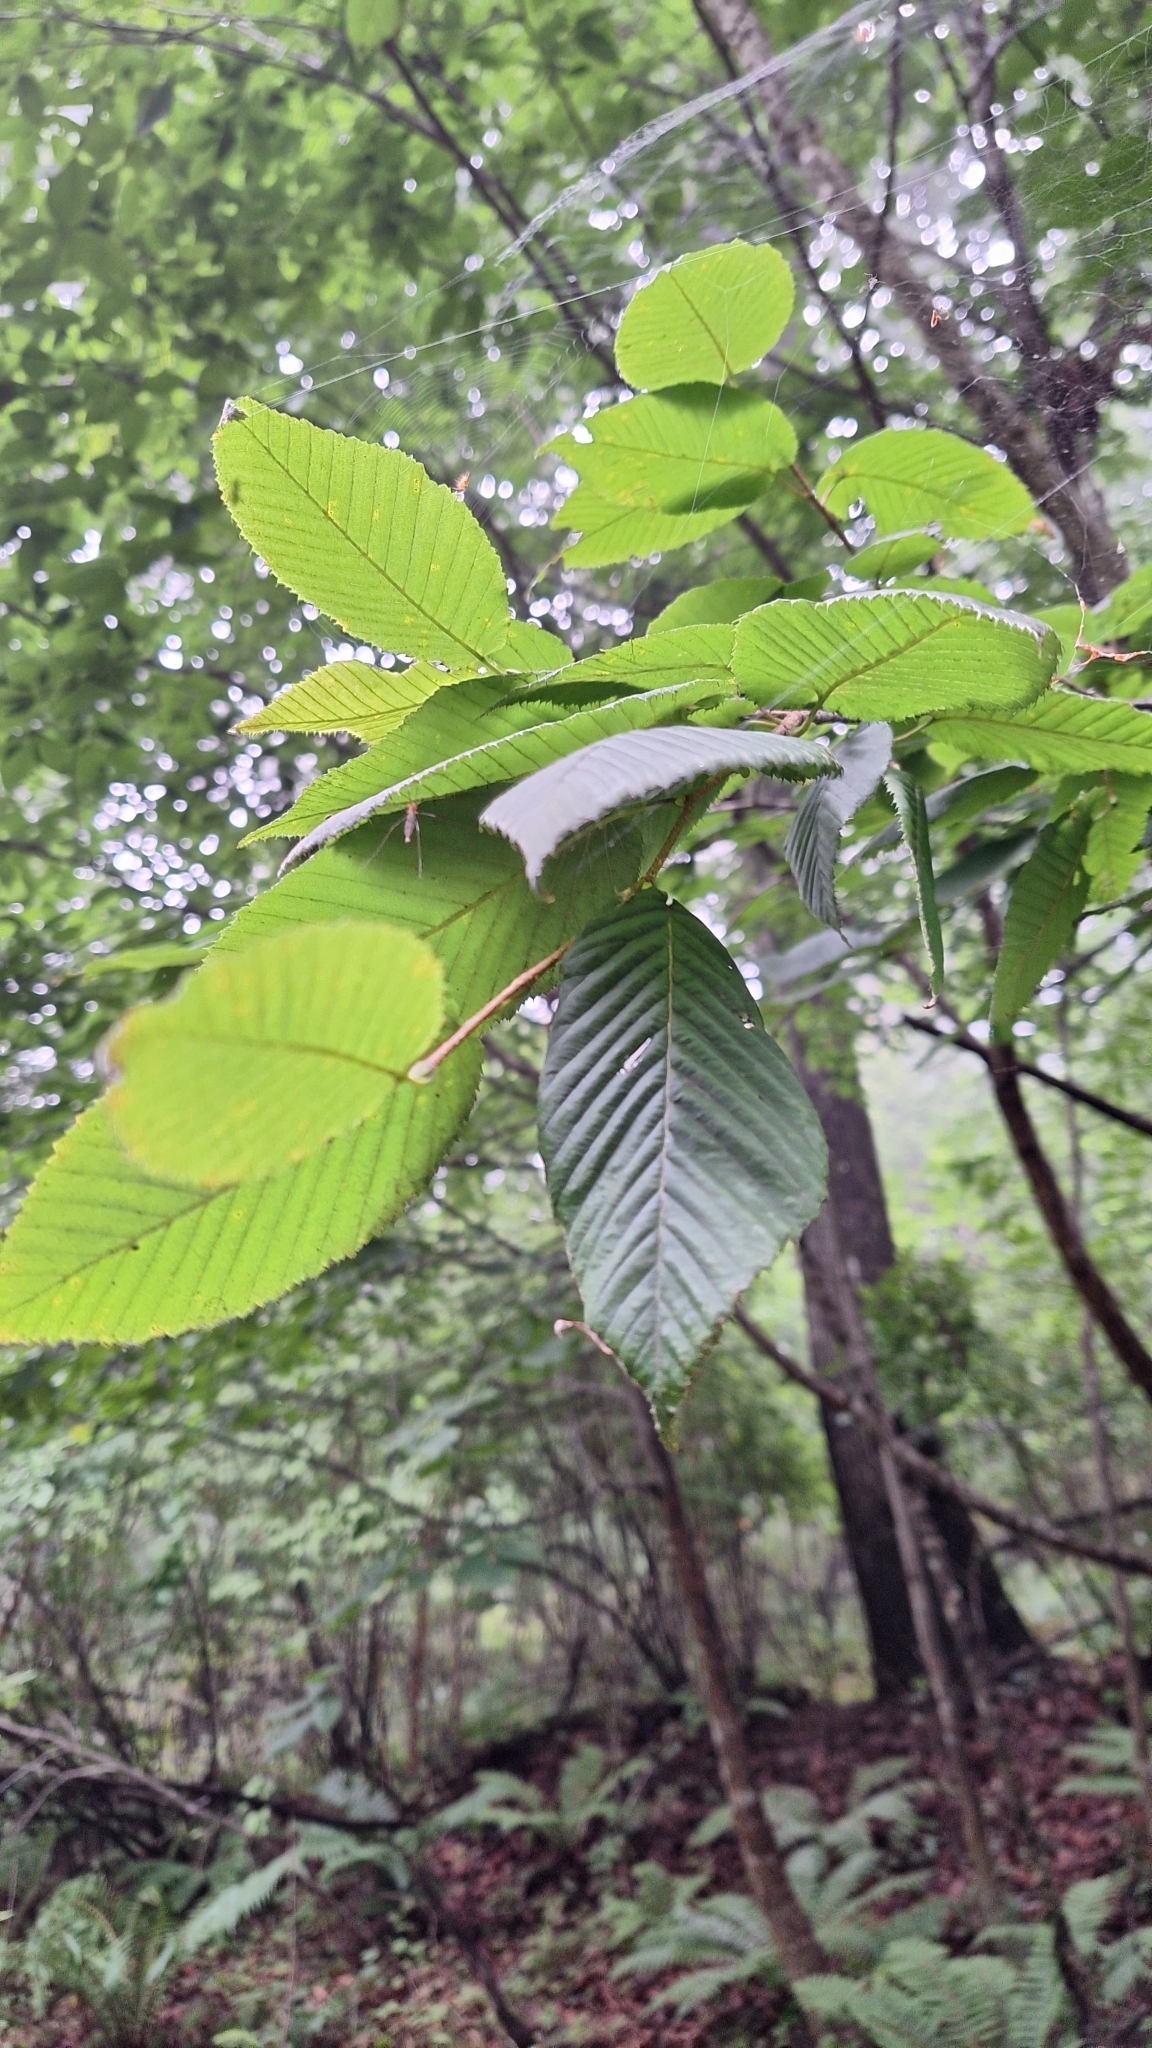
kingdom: Plantae
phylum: Tracheophyta
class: Magnoliopsida
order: Fagales
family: Betulaceae
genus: Carpinus
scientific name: Carpinus cordata
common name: Sawa hornbeam
